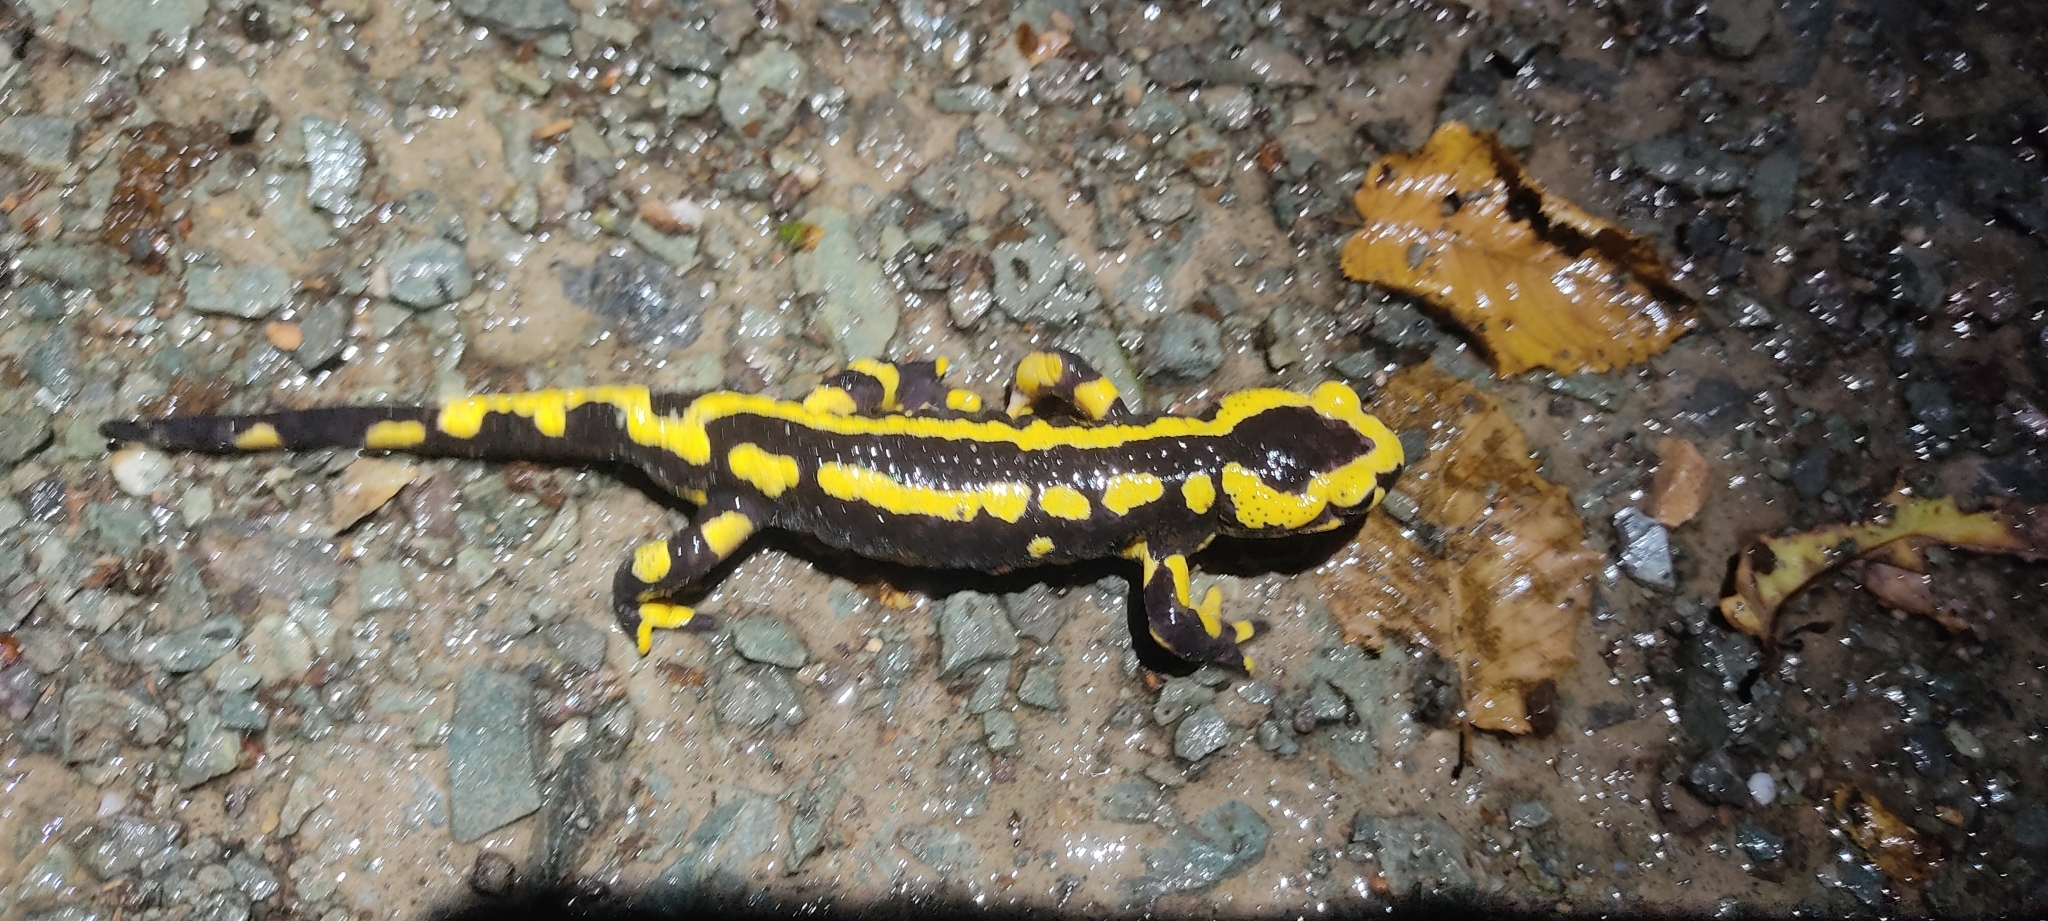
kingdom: Animalia
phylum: Chordata
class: Amphibia
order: Caudata
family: Salamandridae
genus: Salamandra
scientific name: Salamandra salamandra
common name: Fire salamander
